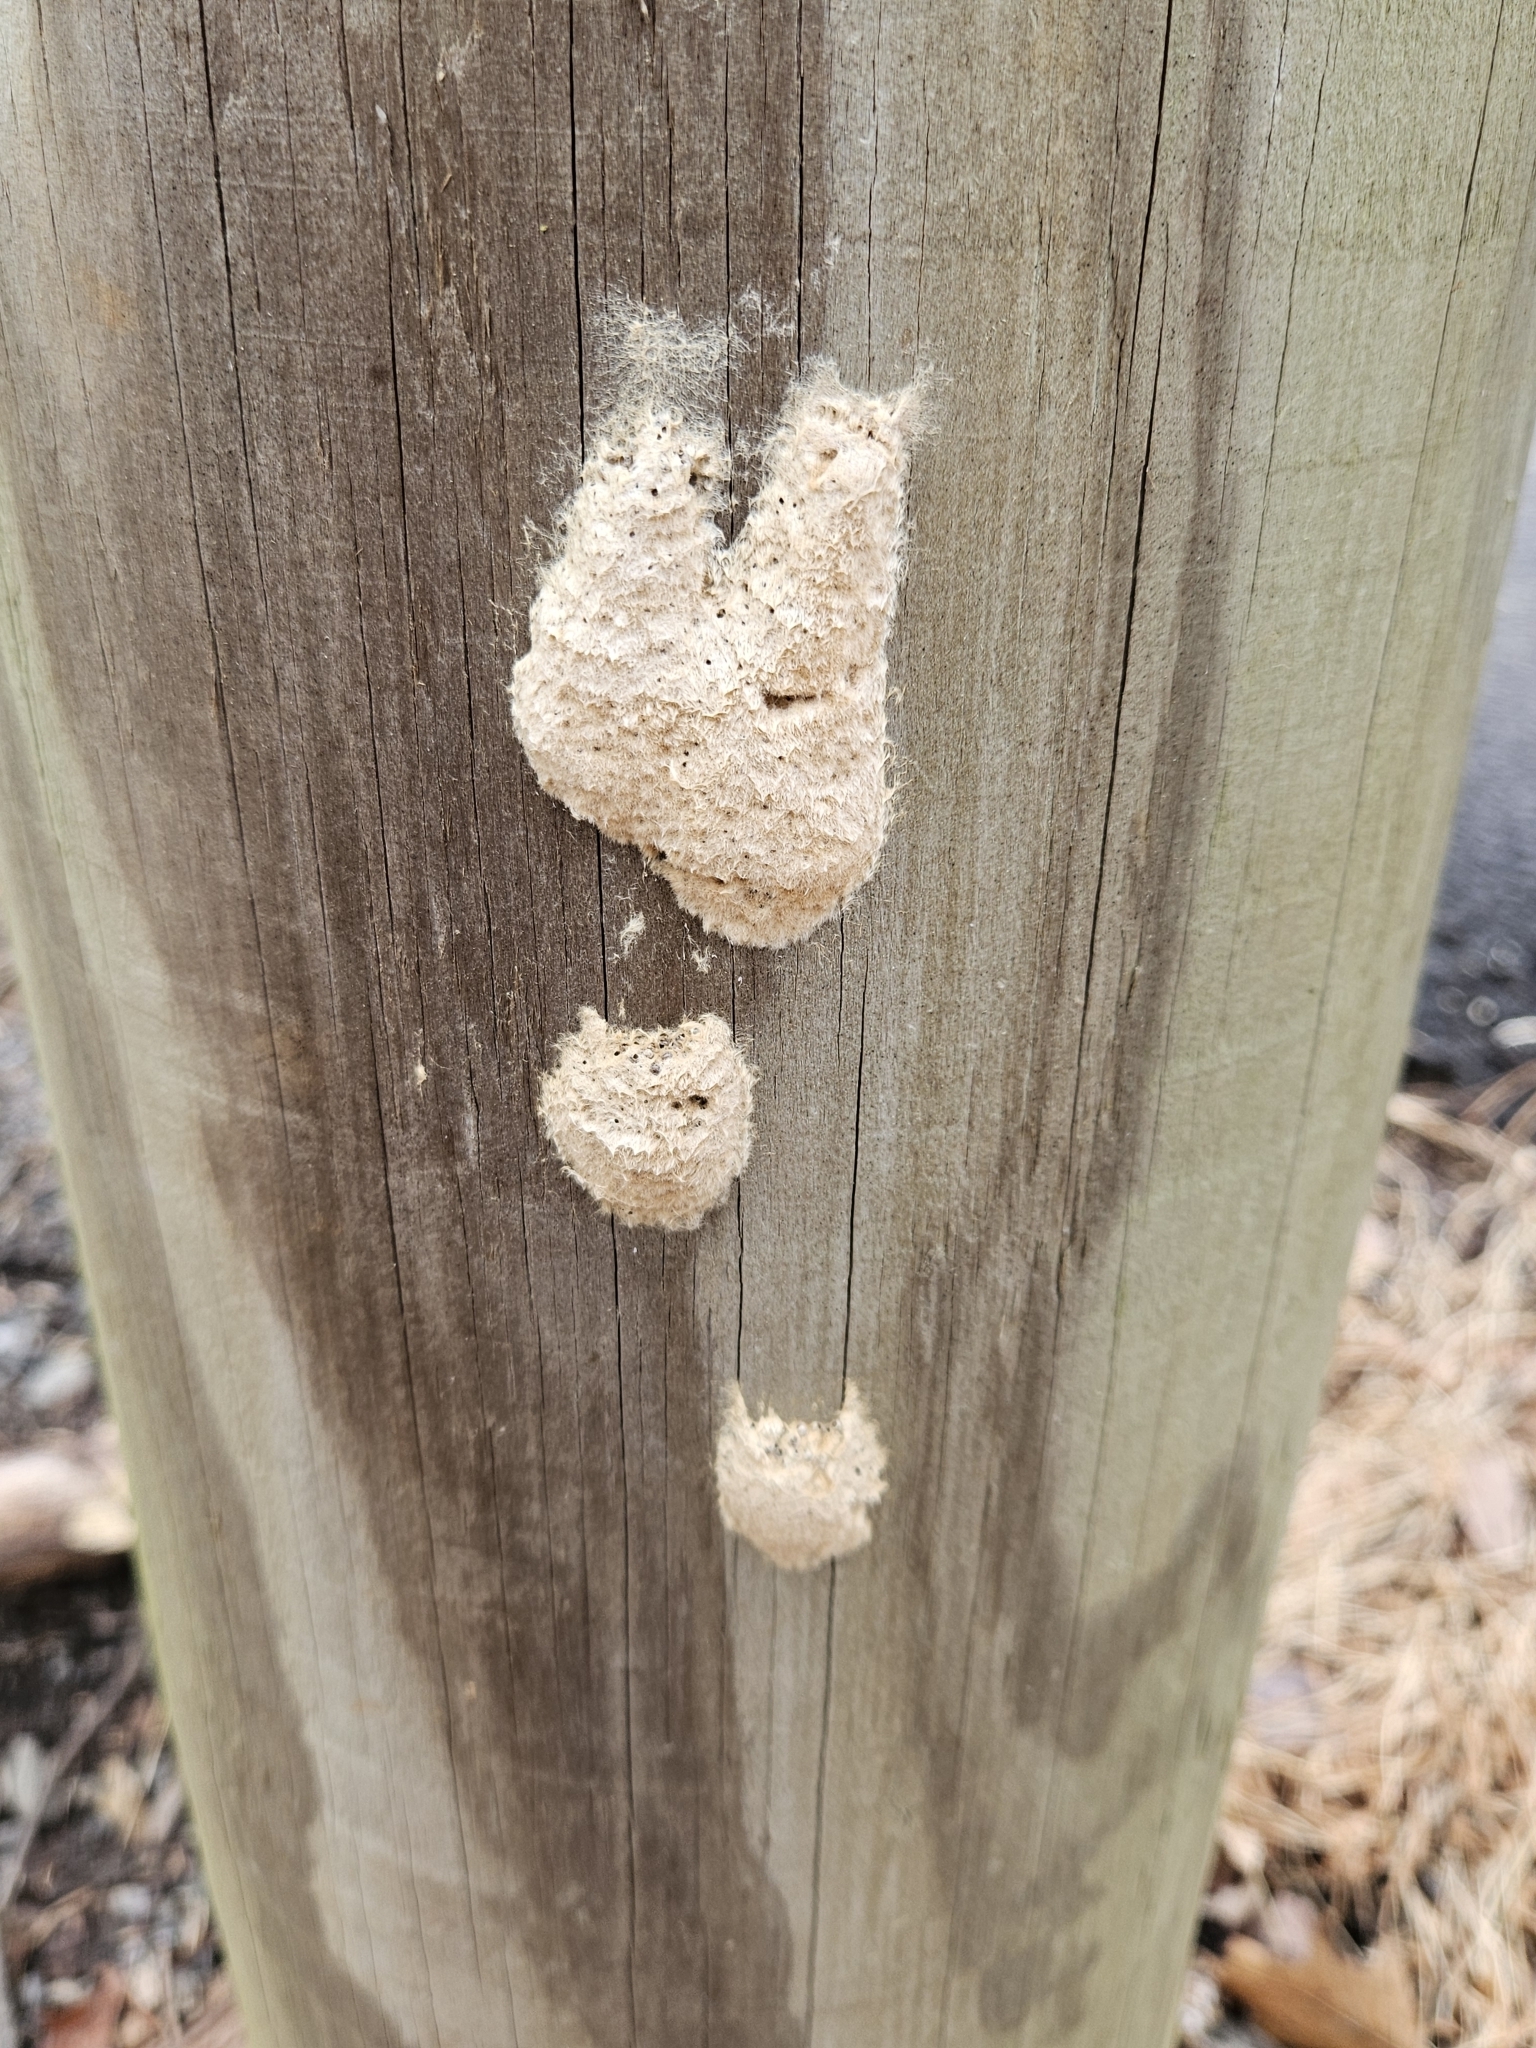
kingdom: Animalia
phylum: Arthropoda
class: Insecta
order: Lepidoptera
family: Erebidae
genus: Lymantria
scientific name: Lymantria dispar
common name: Gypsy moth
